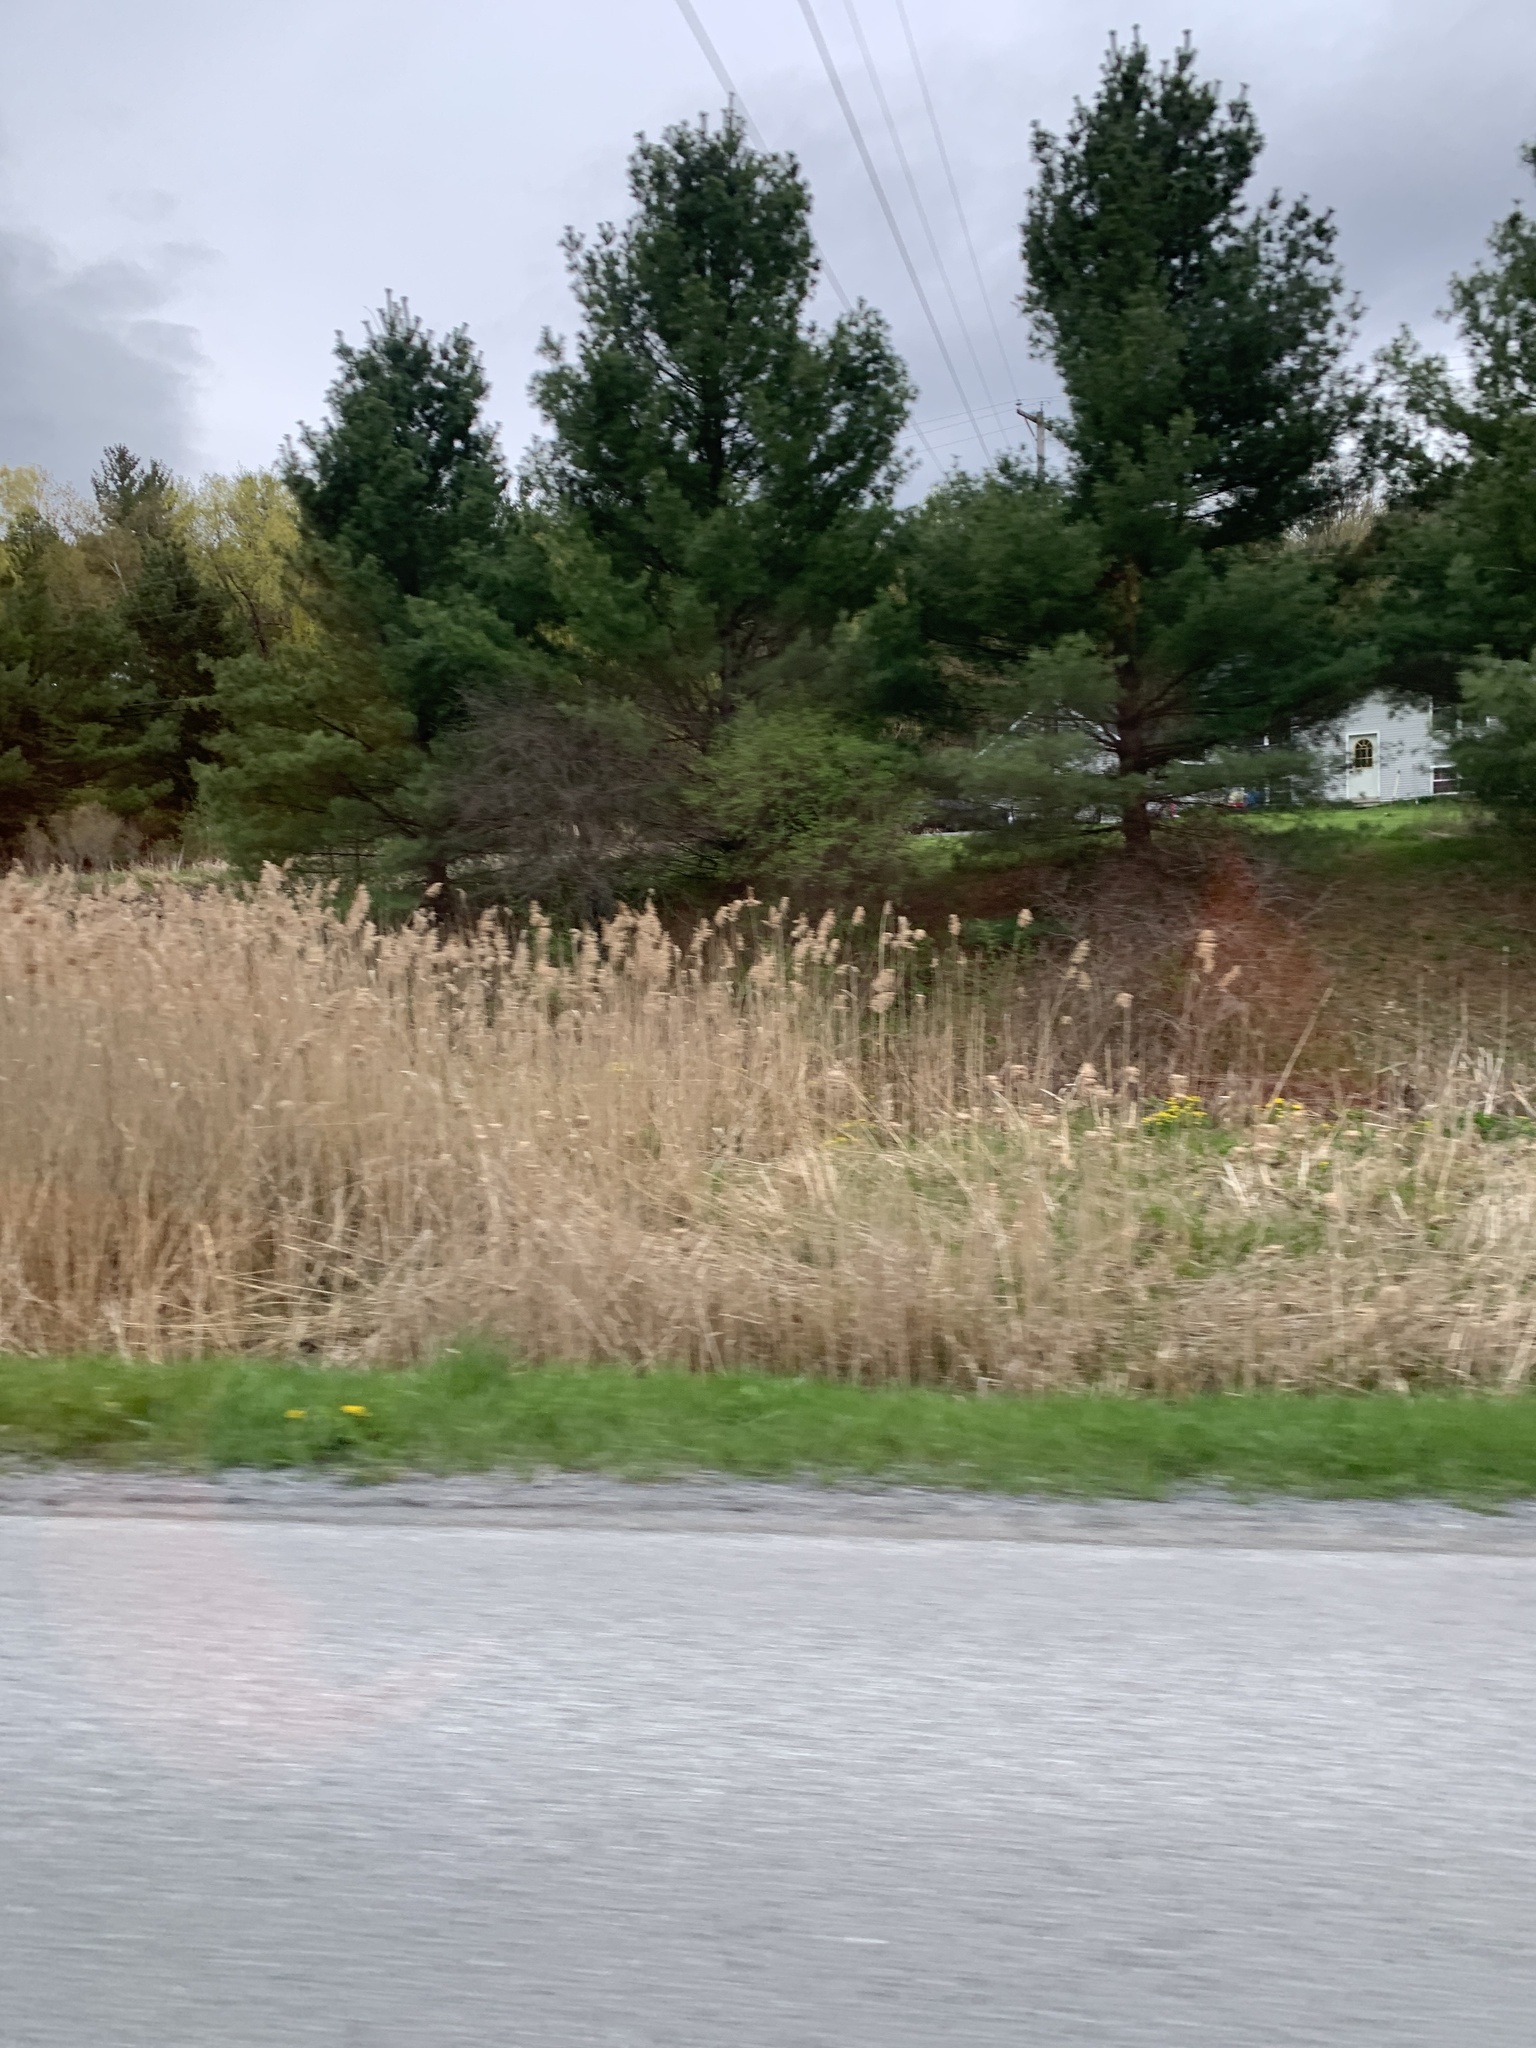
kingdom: Plantae
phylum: Tracheophyta
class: Liliopsida
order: Poales
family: Poaceae
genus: Phragmites
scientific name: Phragmites australis
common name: Common reed
